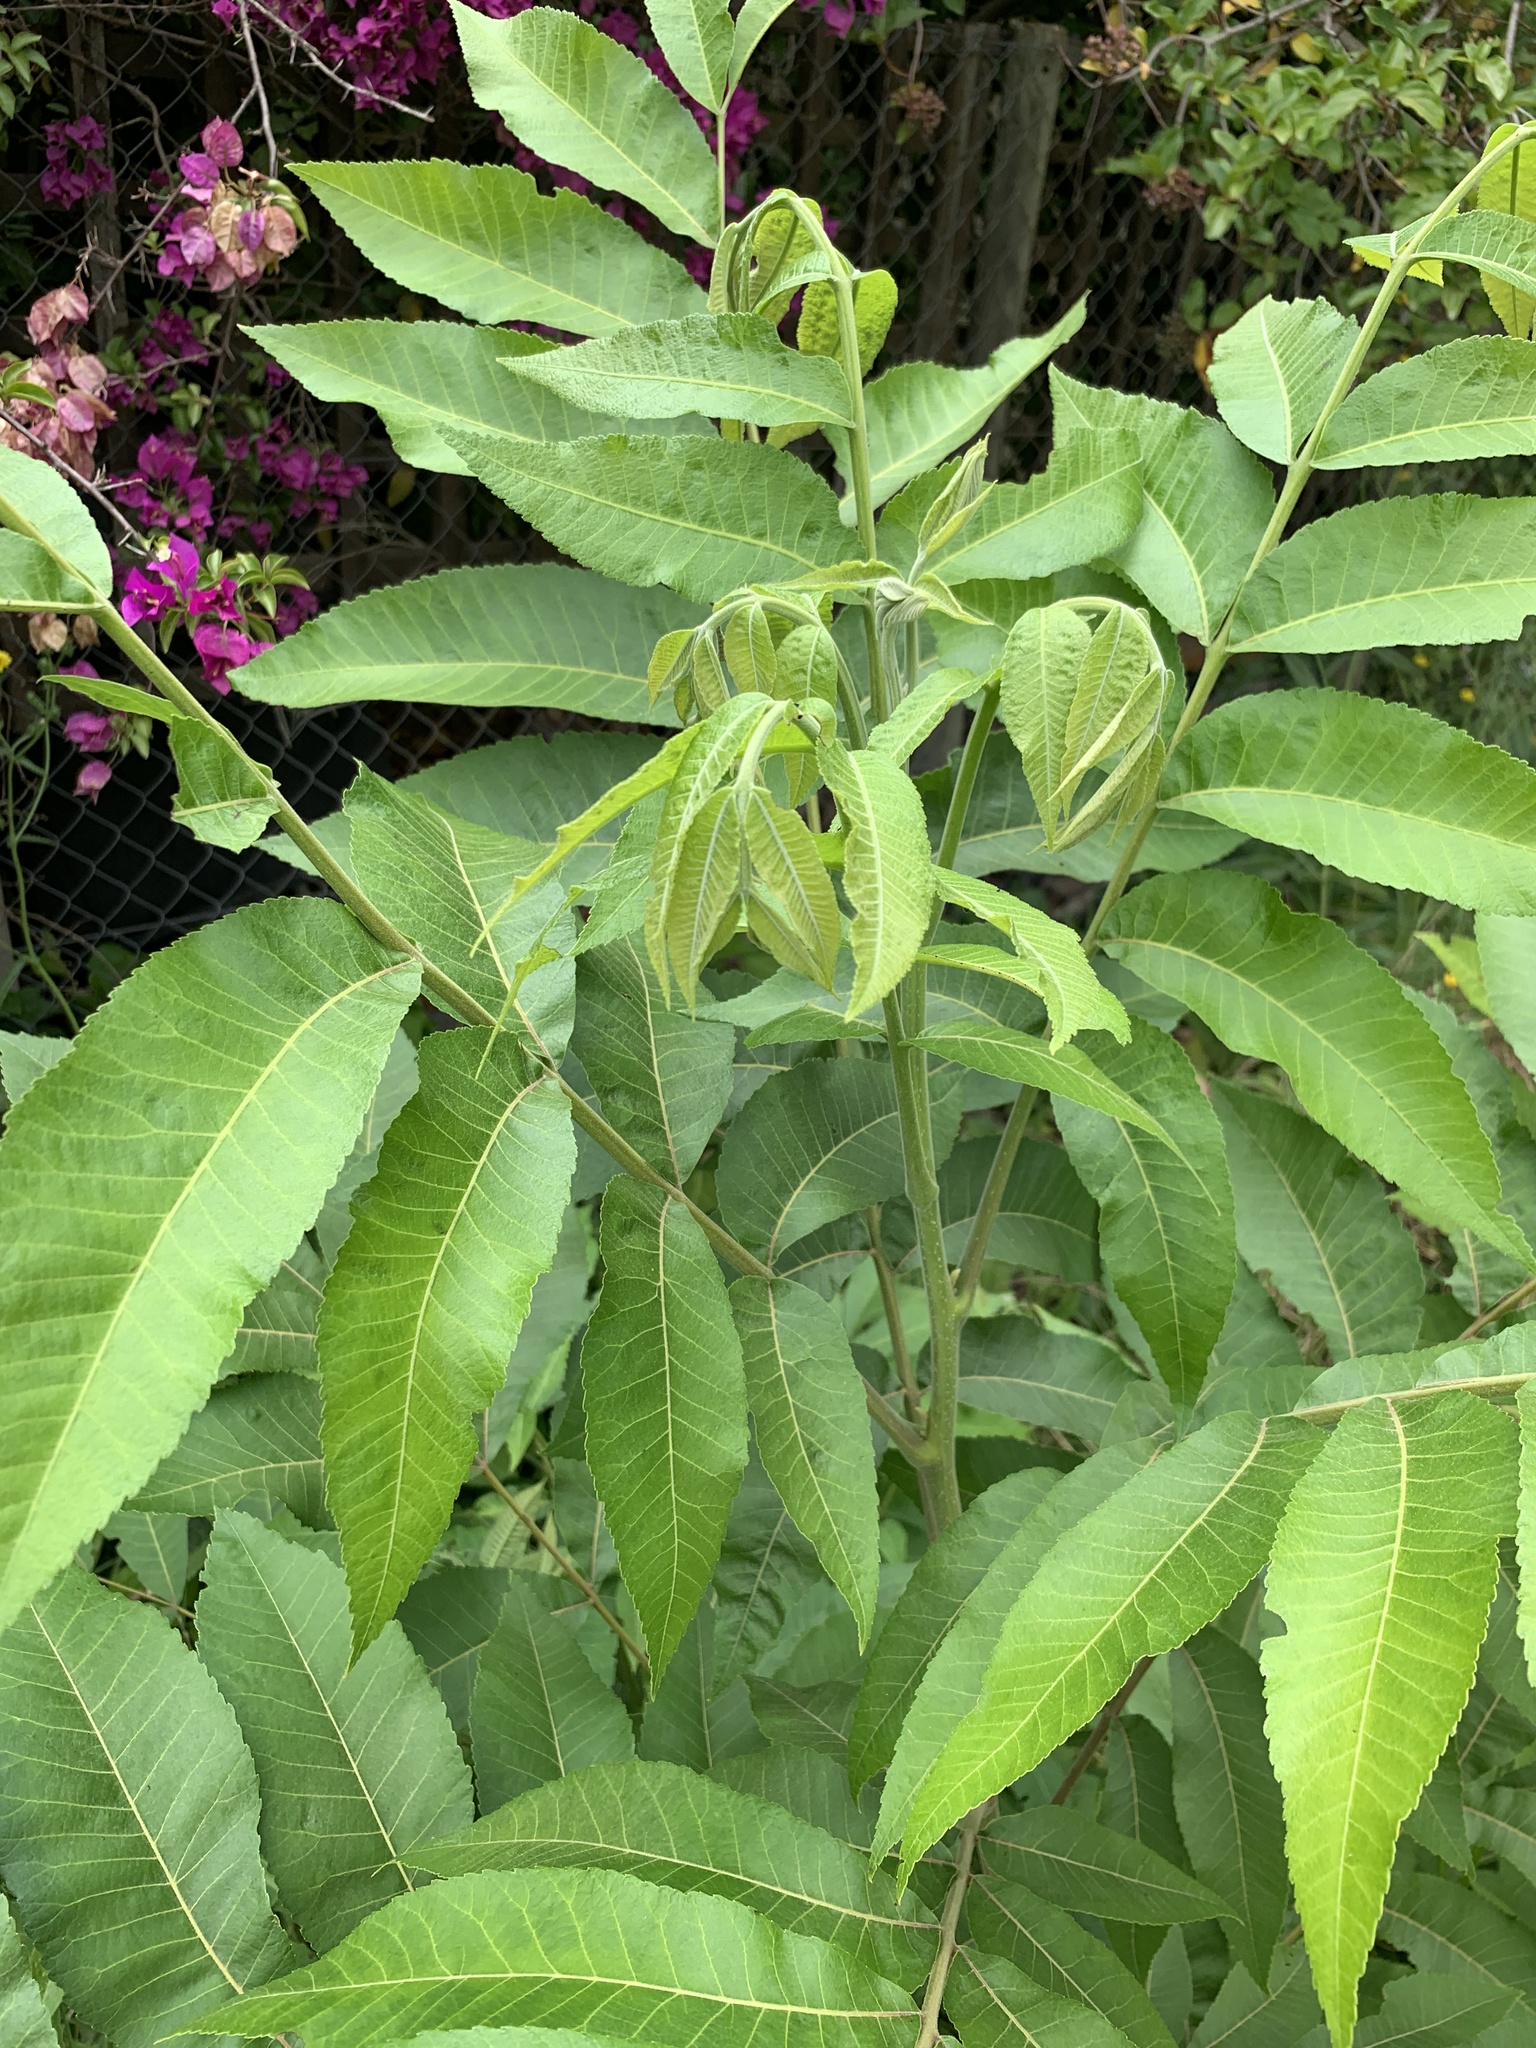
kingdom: Plantae
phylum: Tracheophyta
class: Magnoliopsida
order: Fagales
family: Juglandaceae
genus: Carya
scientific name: Carya illinoinensis
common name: Pecan
